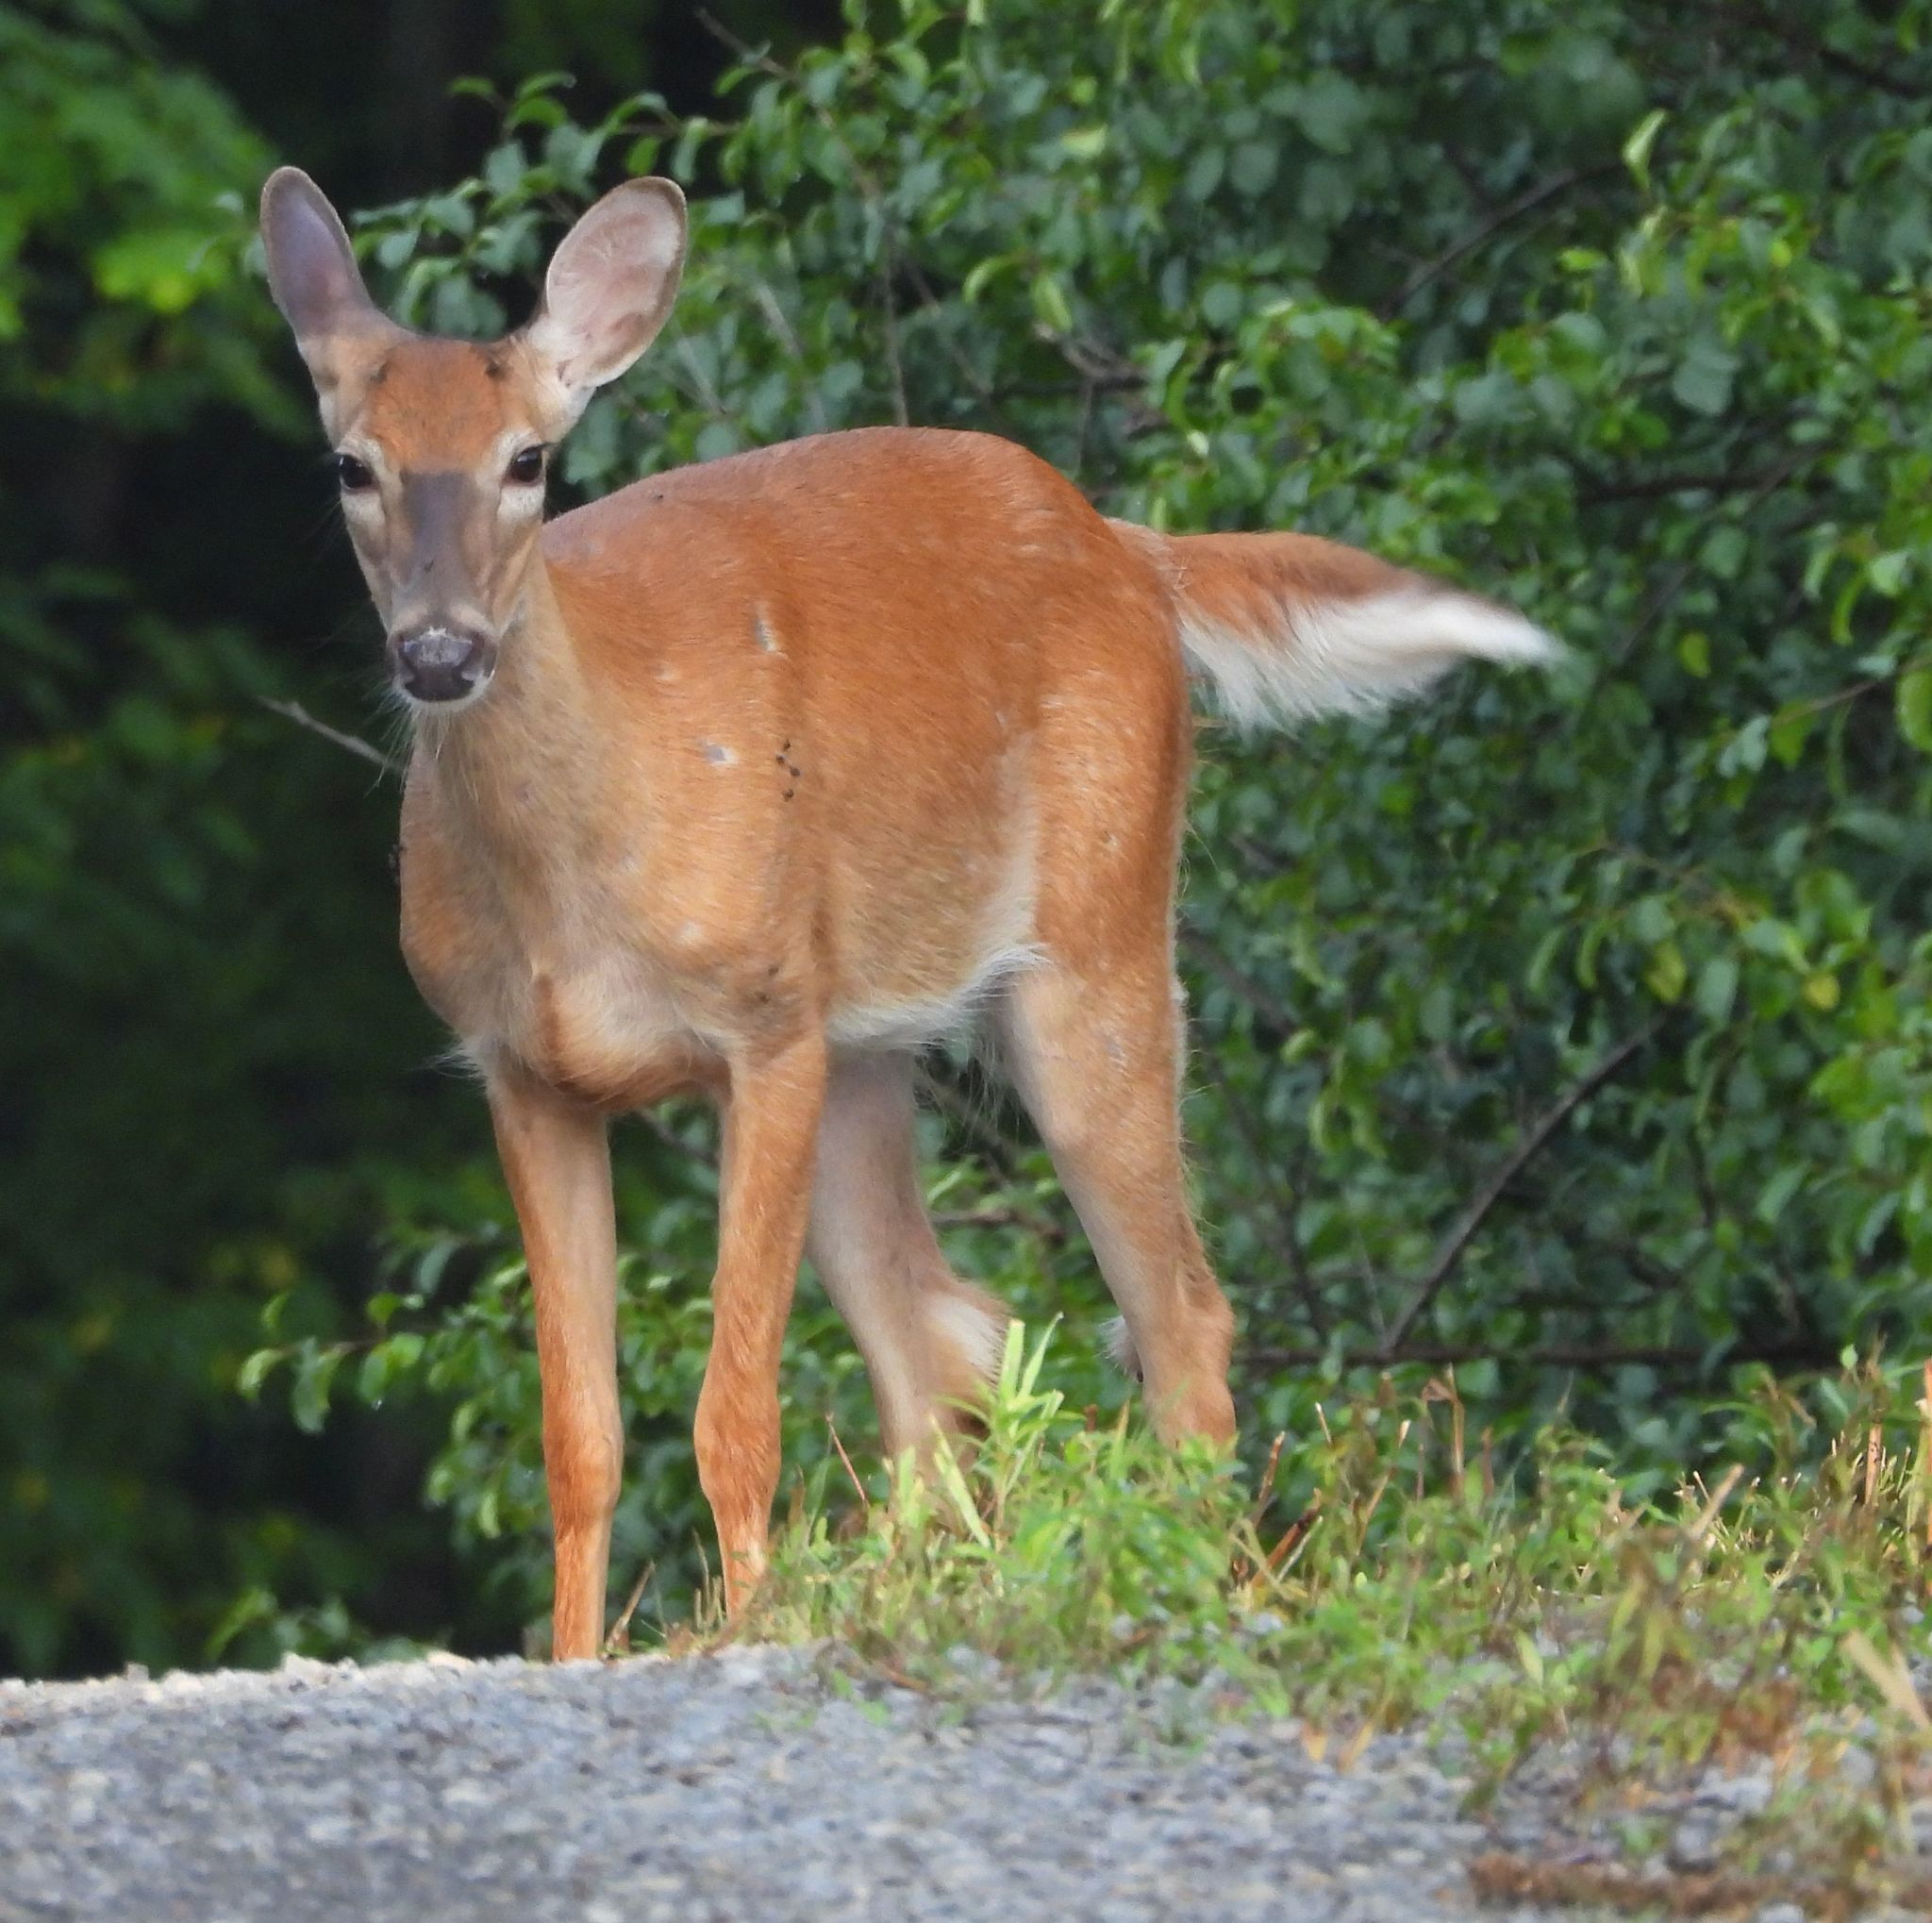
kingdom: Animalia
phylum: Chordata
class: Mammalia
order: Artiodactyla
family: Cervidae
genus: Odocoileus
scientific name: Odocoileus virginianus
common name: White-tailed deer
